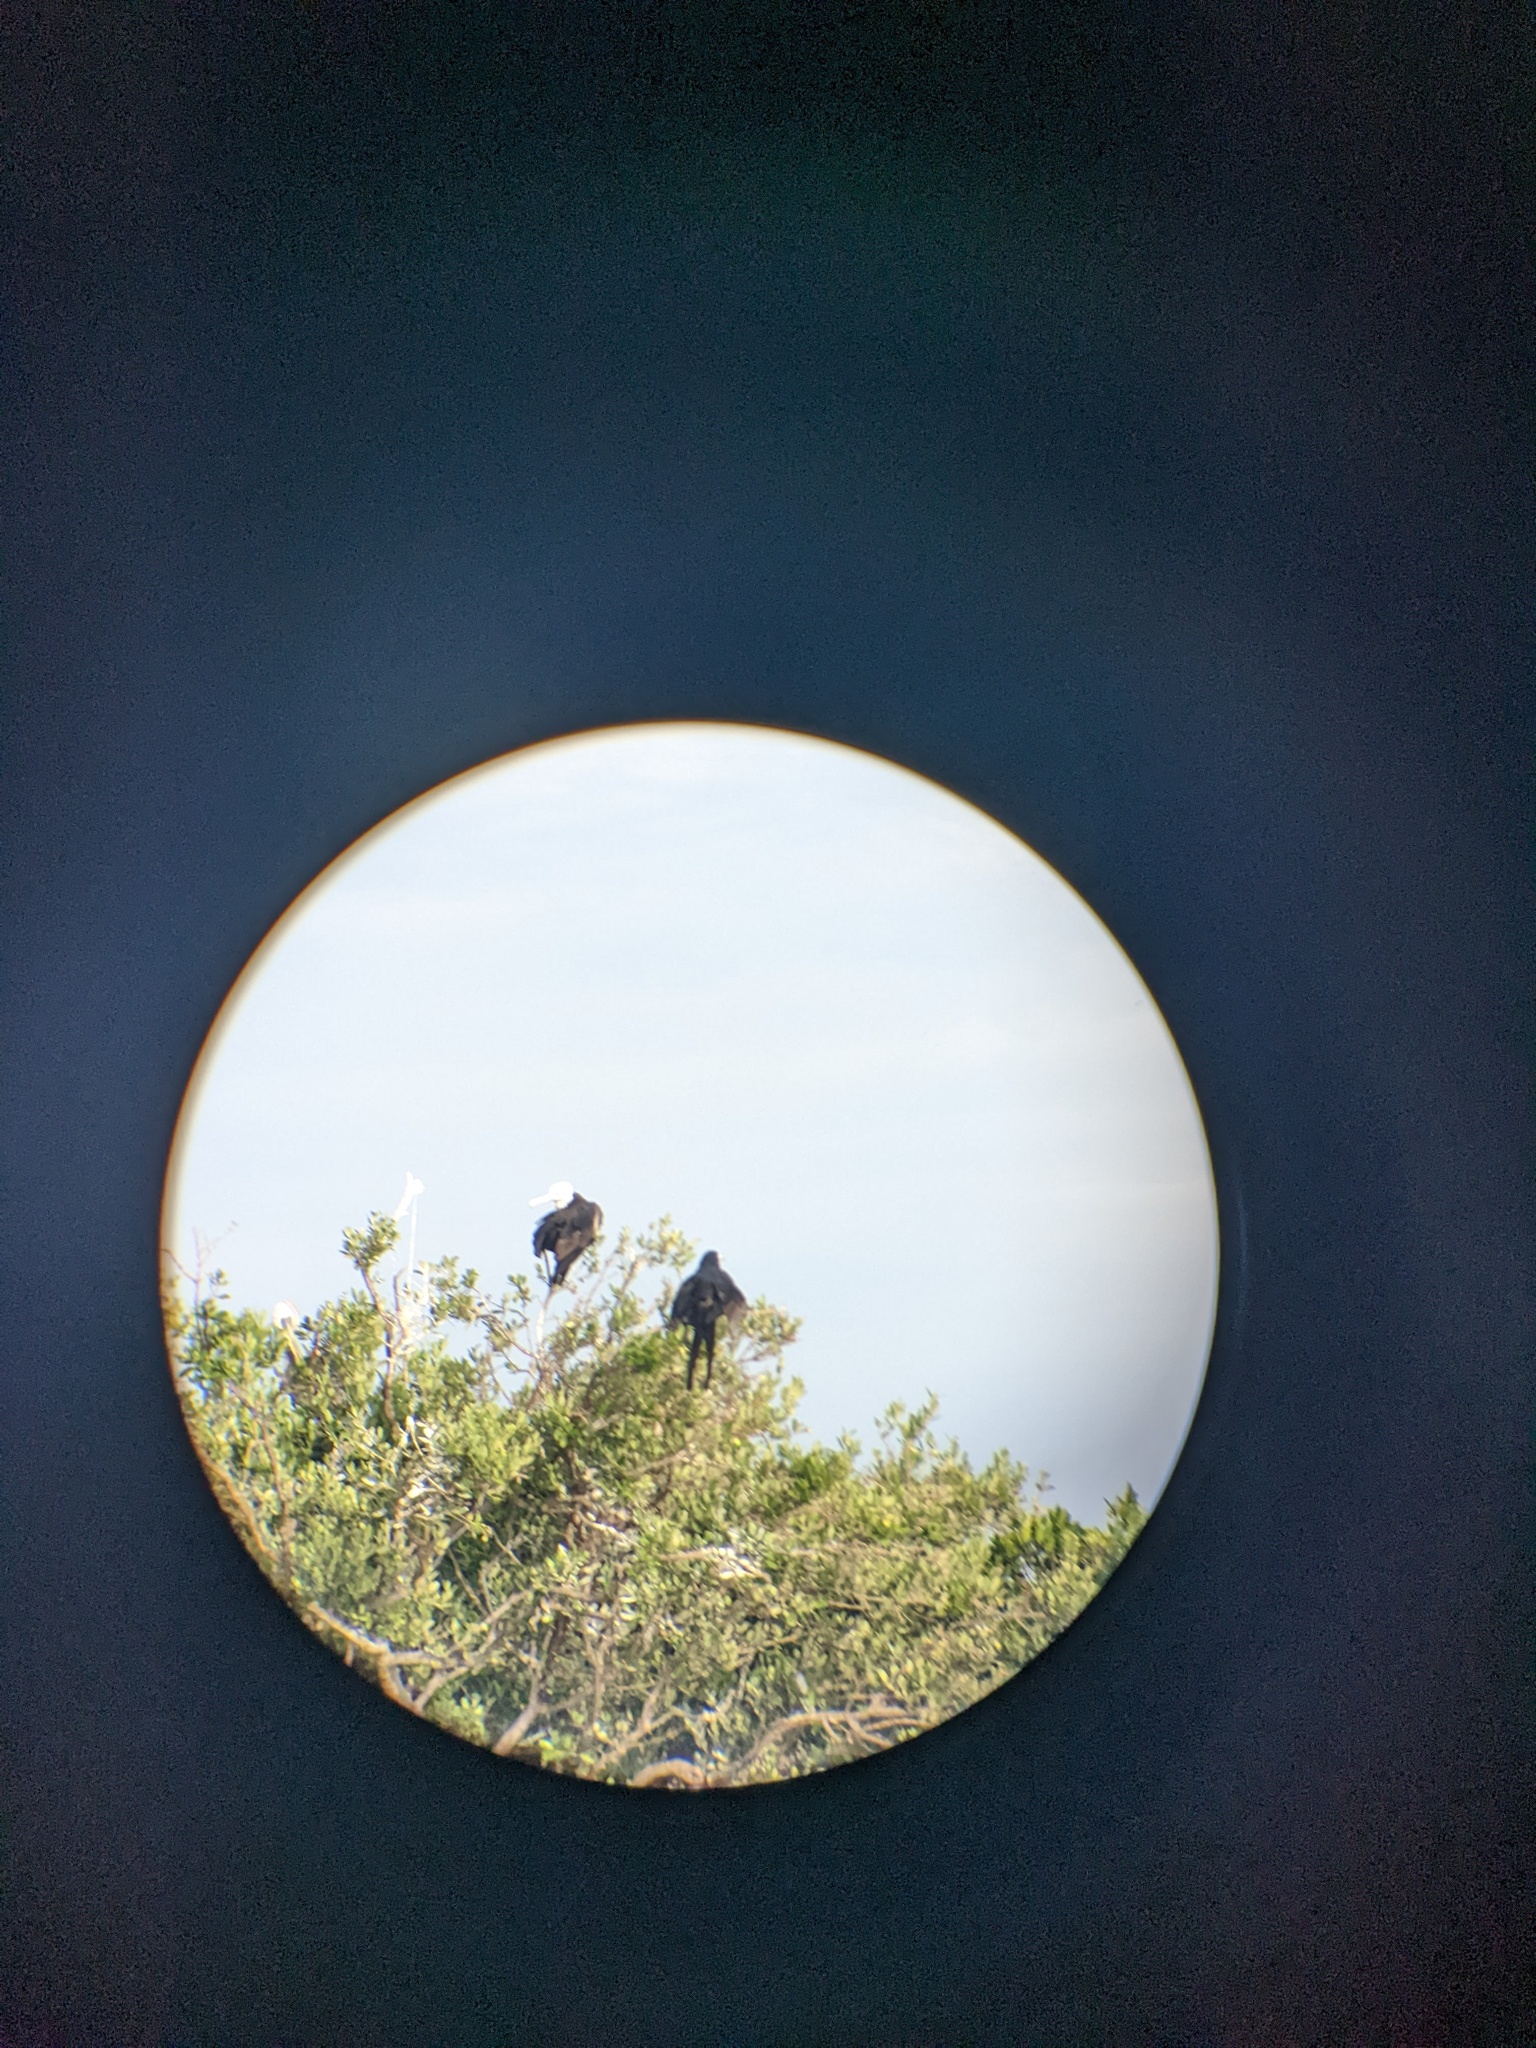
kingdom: Animalia
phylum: Chordata
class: Aves
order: Suliformes
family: Fregatidae
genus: Fregata
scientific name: Fregata magnificens
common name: Magnificent frigatebird
